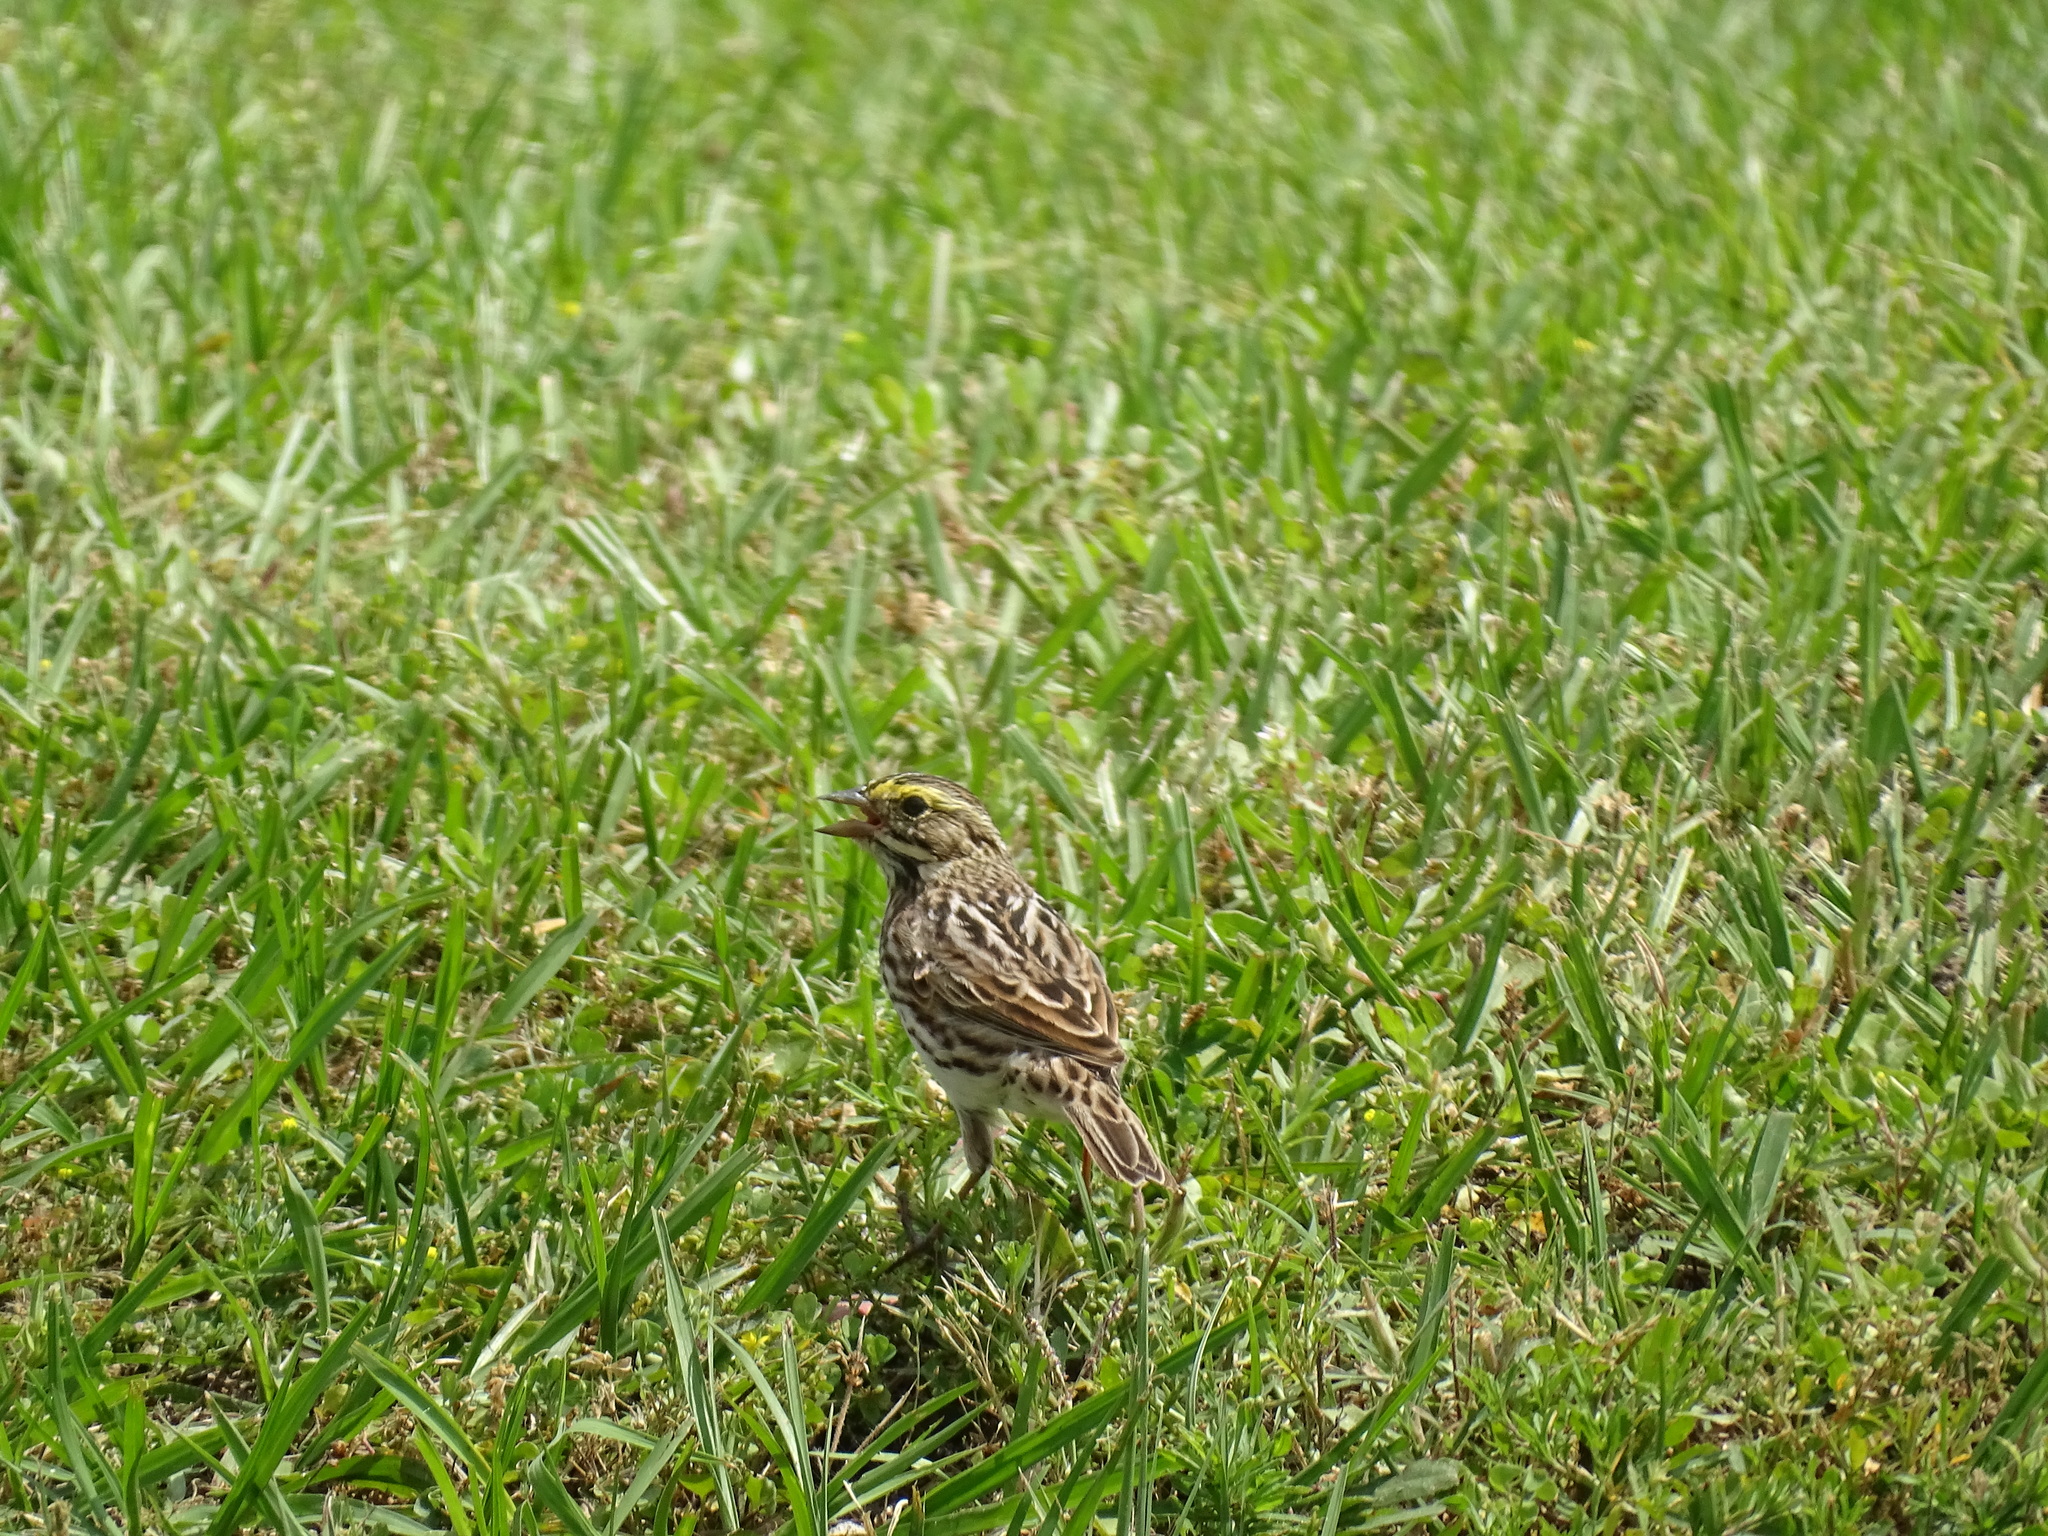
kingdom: Animalia
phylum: Chordata
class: Aves
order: Passeriformes
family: Passerellidae
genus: Passerculus
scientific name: Passerculus sandwichensis
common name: Savannah sparrow
